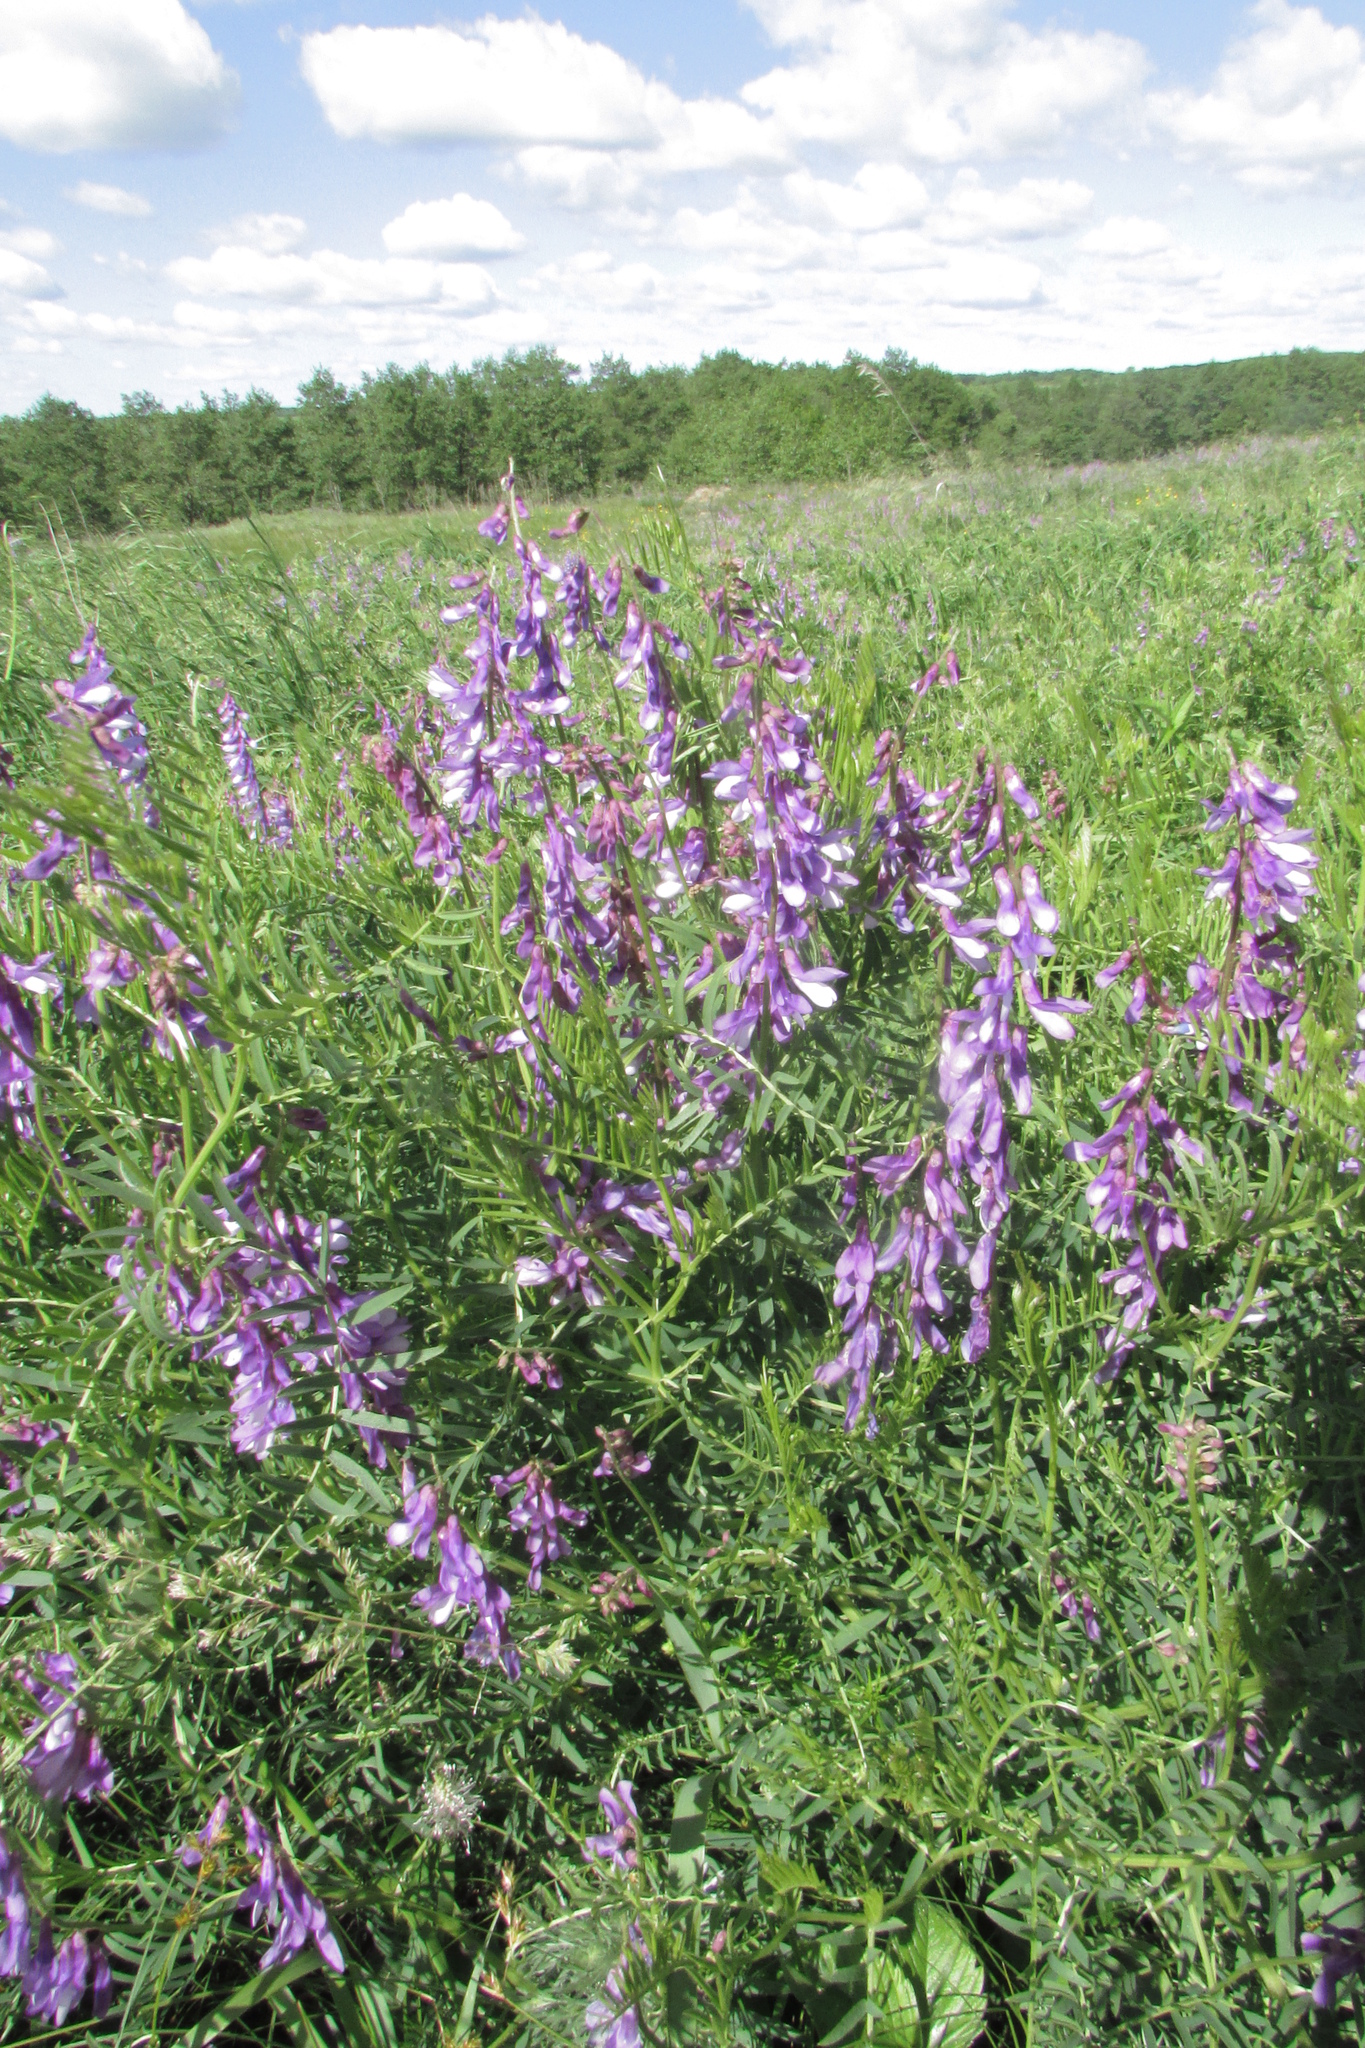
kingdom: Plantae
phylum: Tracheophyta
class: Magnoliopsida
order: Fabales
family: Fabaceae
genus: Vicia
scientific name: Vicia tenuifolia
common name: Fine-leaved vetch
